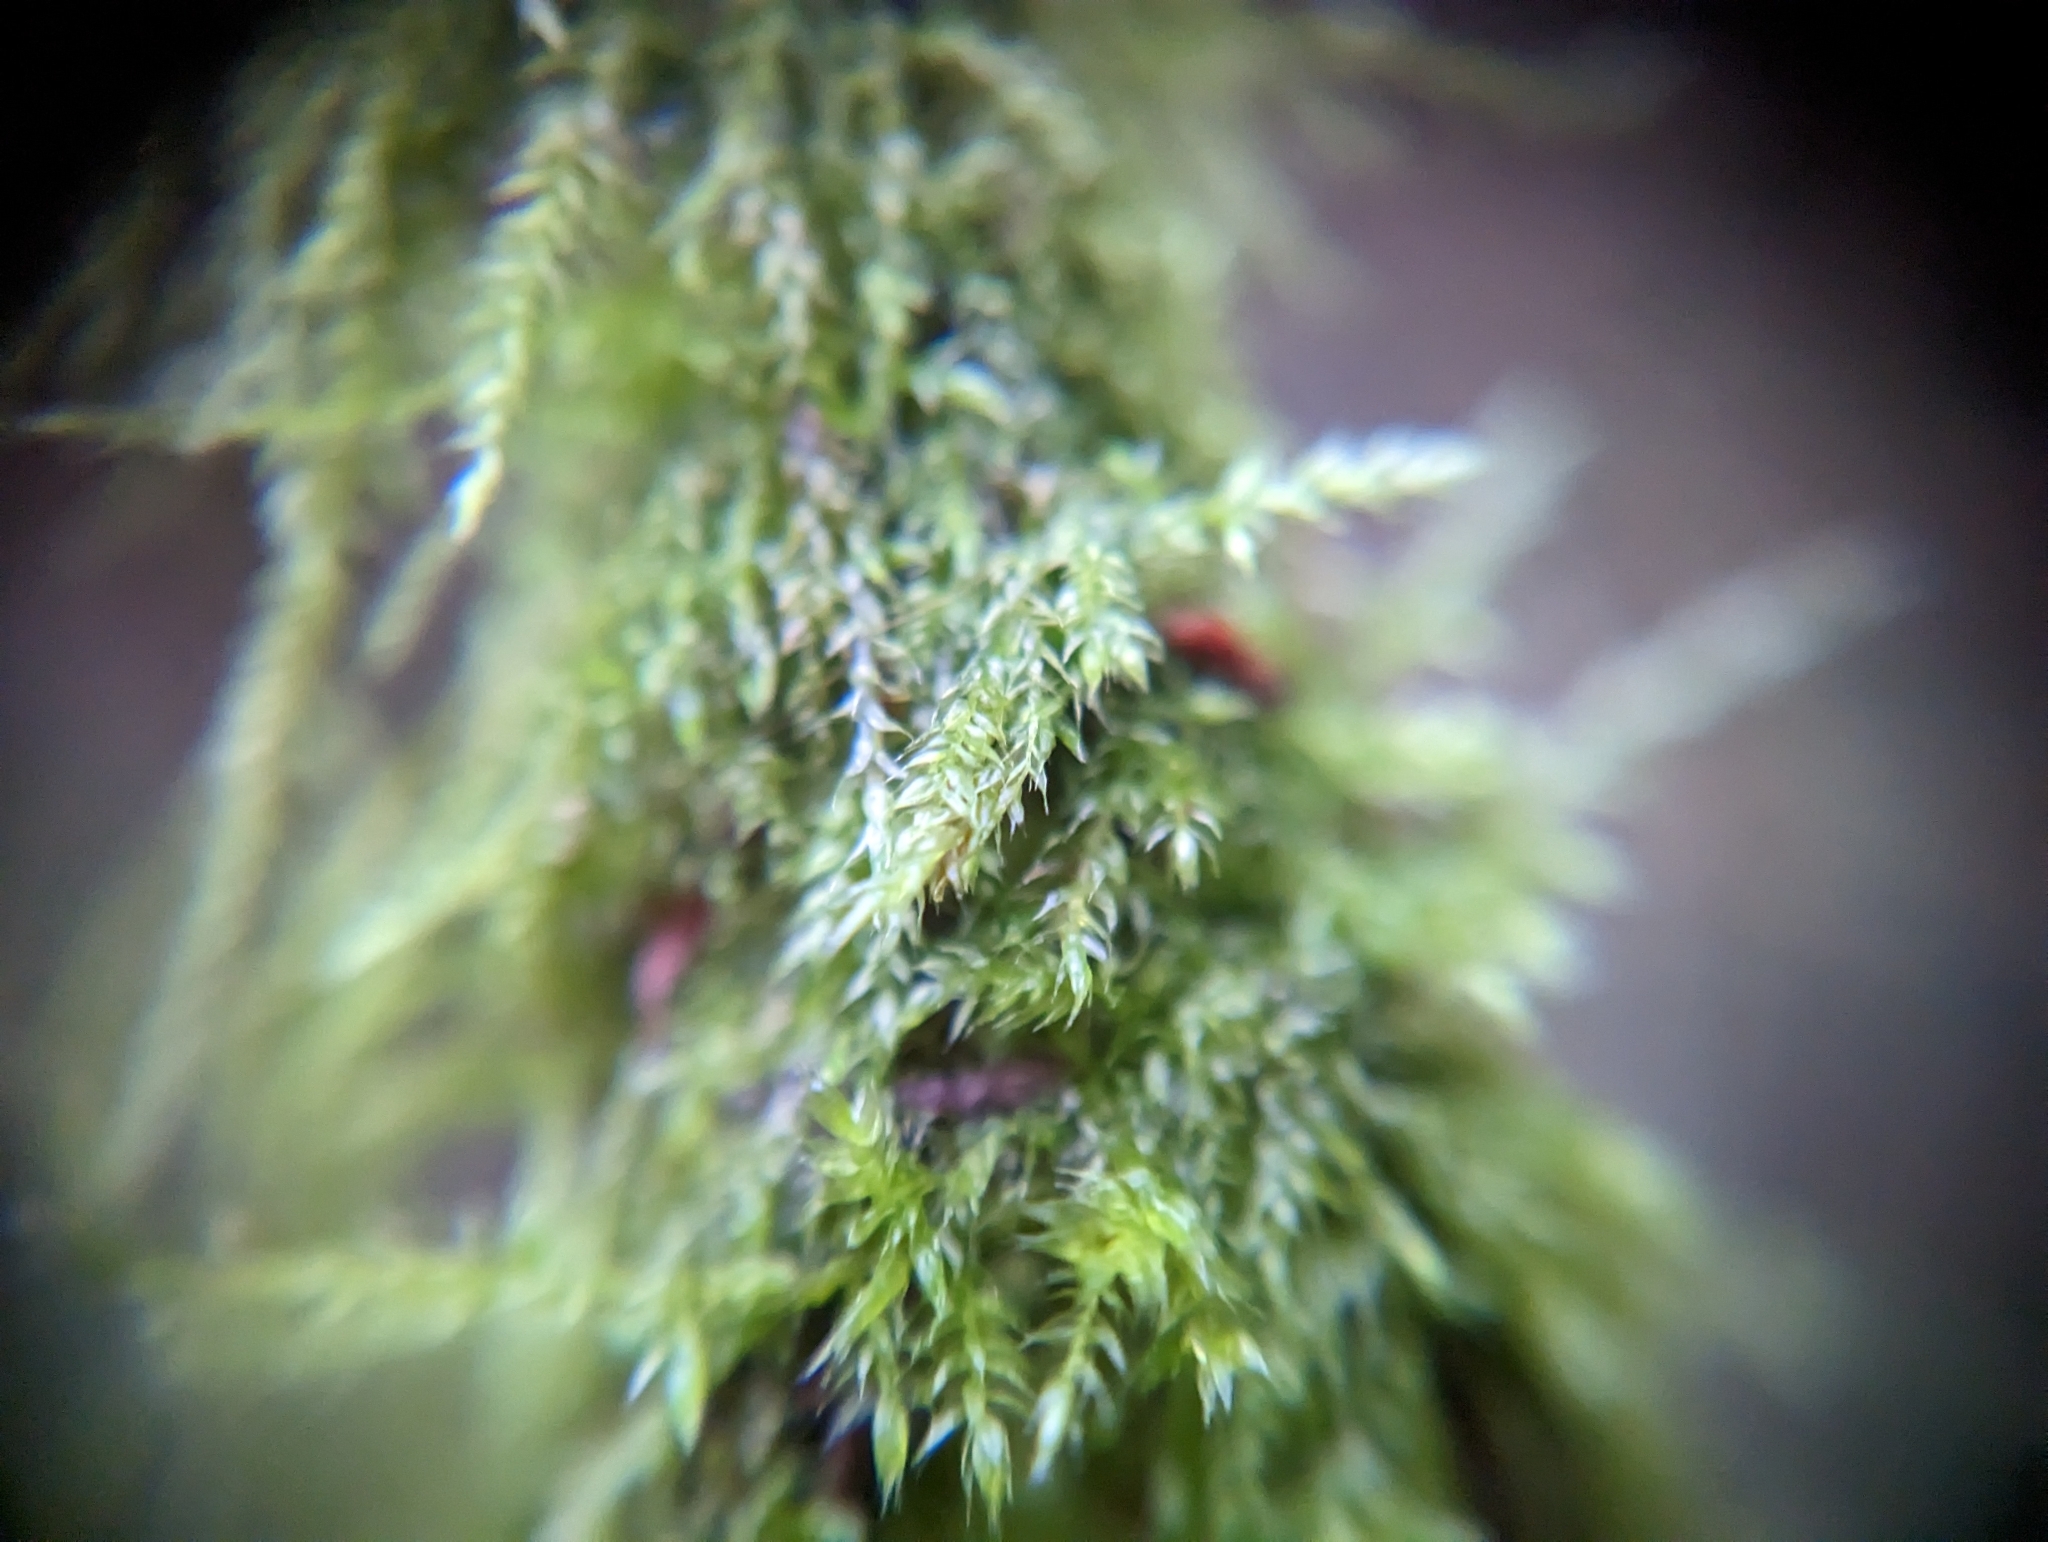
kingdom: Plantae
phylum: Bryophyta
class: Bryopsida
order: Hypnales
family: Lembophyllaceae
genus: Pseudisothecium
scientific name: Pseudisothecium stoloniferum
